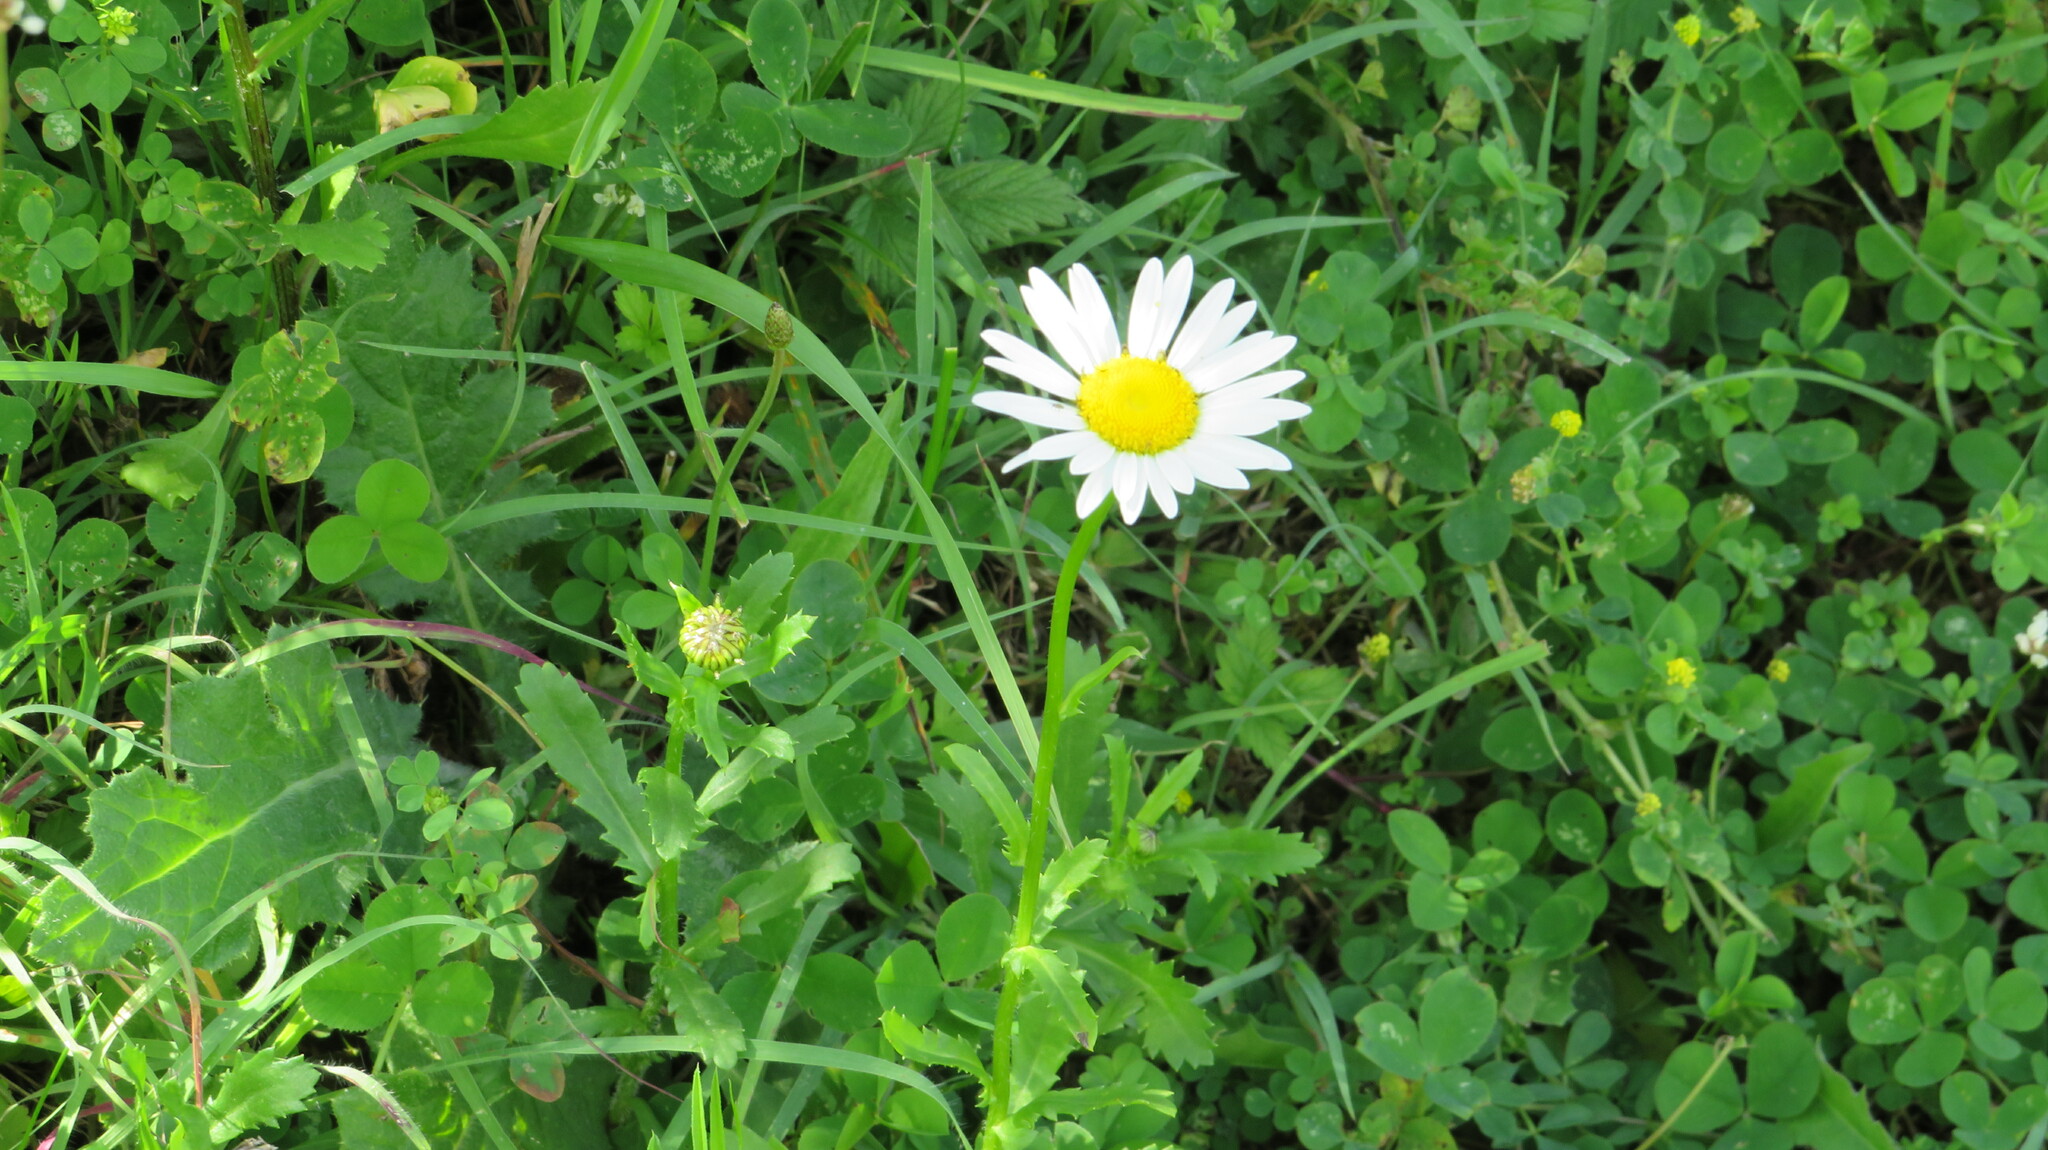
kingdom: Plantae
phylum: Tracheophyta
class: Magnoliopsida
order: Asterales
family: Asteraceae
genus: Leucanthemum
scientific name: Leucanthemum vulgare
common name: Oxeye daisy
